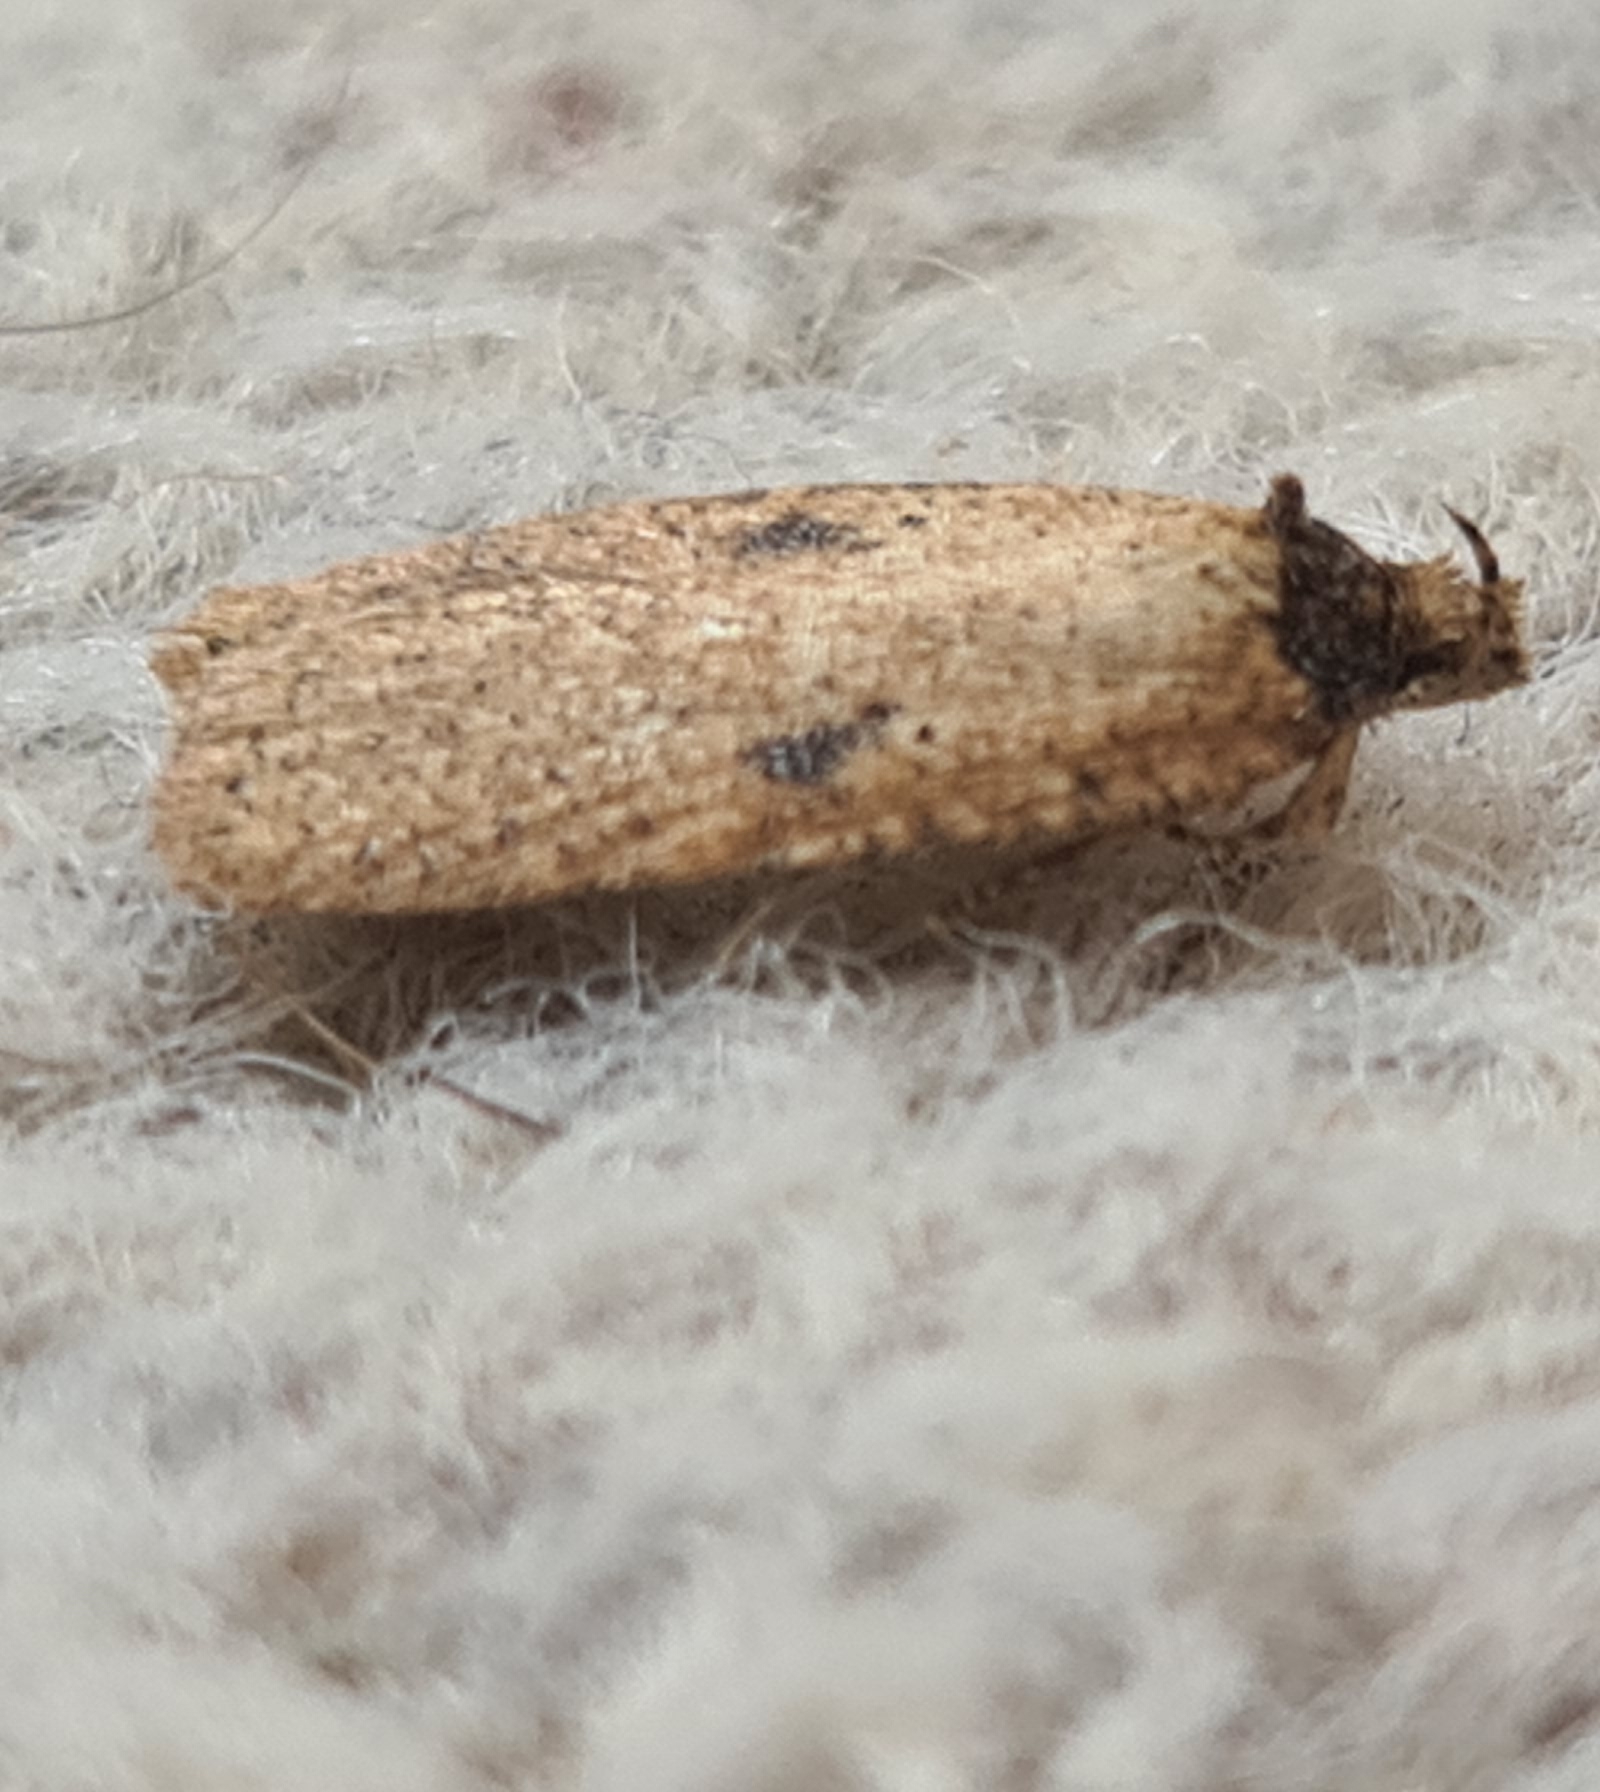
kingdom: Animalia
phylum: Arthropoda
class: Insecta
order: Lepidoptera
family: Depressariidae
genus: Agonopterix
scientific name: Agonopterix arenella
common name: Brindled flat-body
